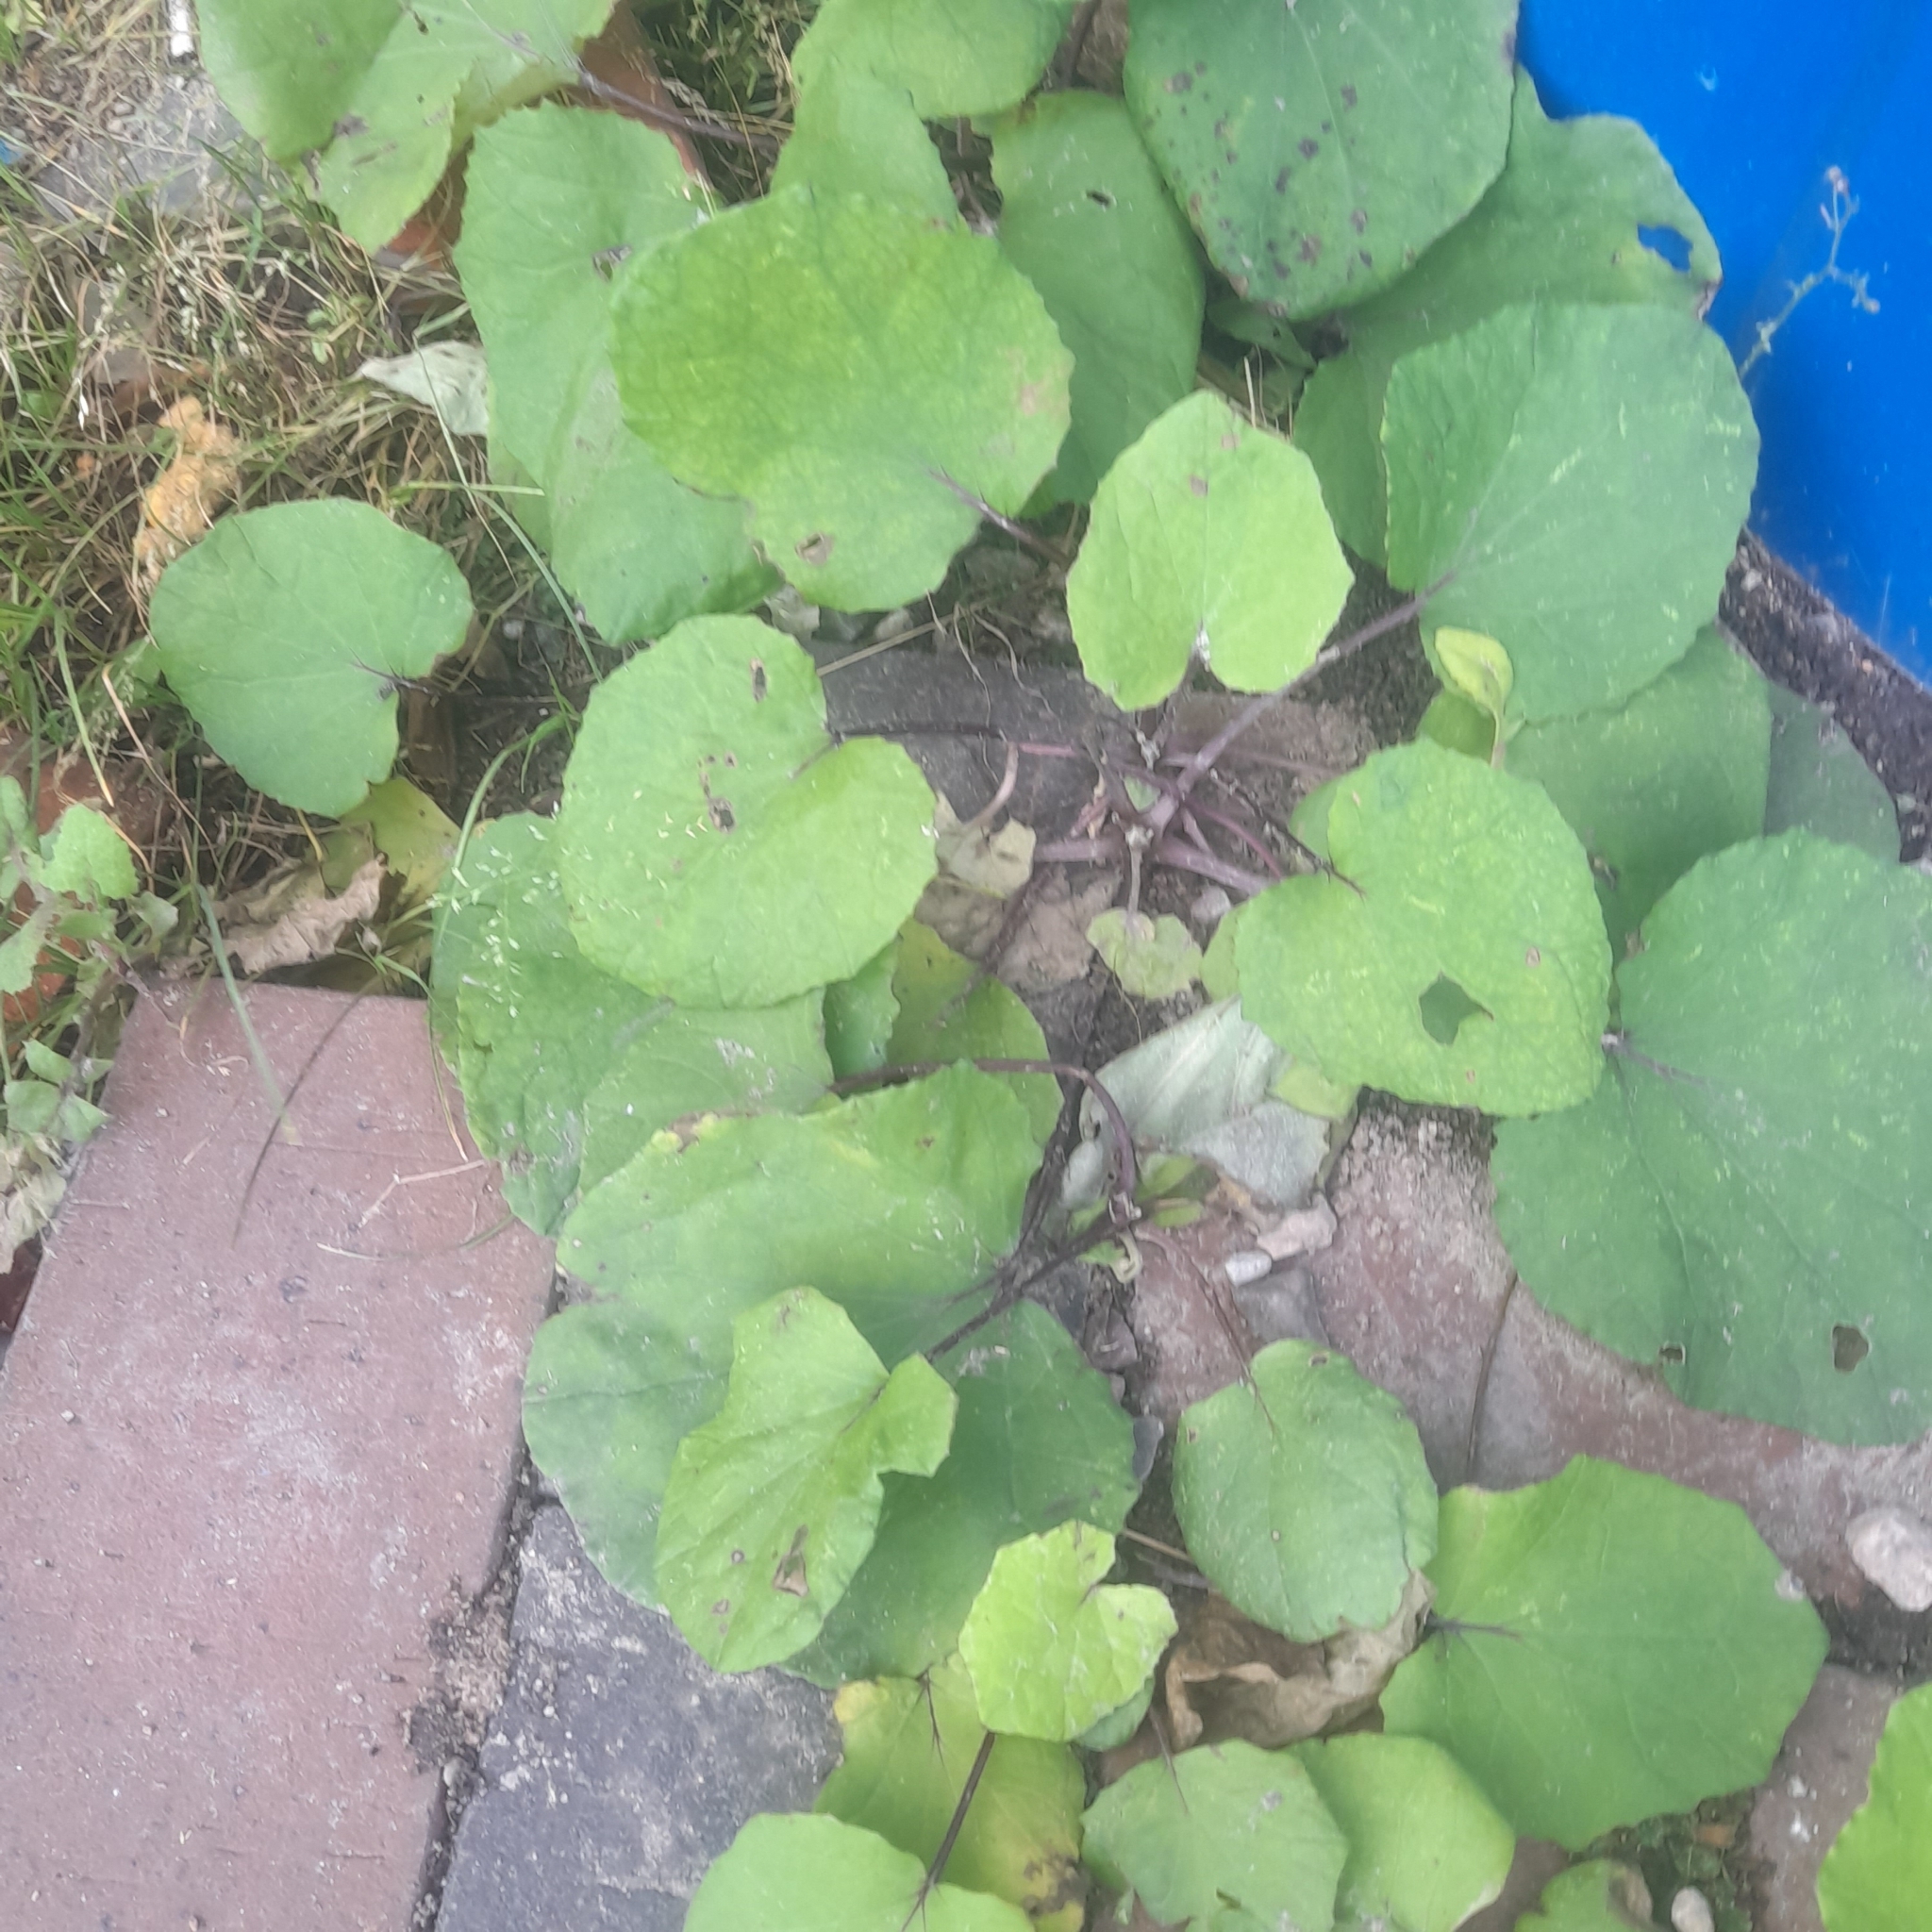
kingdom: Plantae
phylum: Tracheophyta
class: Magnoliopsida
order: Asterales
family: Asteraceae
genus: Tussilago
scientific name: Tussilago farfara
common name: Coltsfoot
